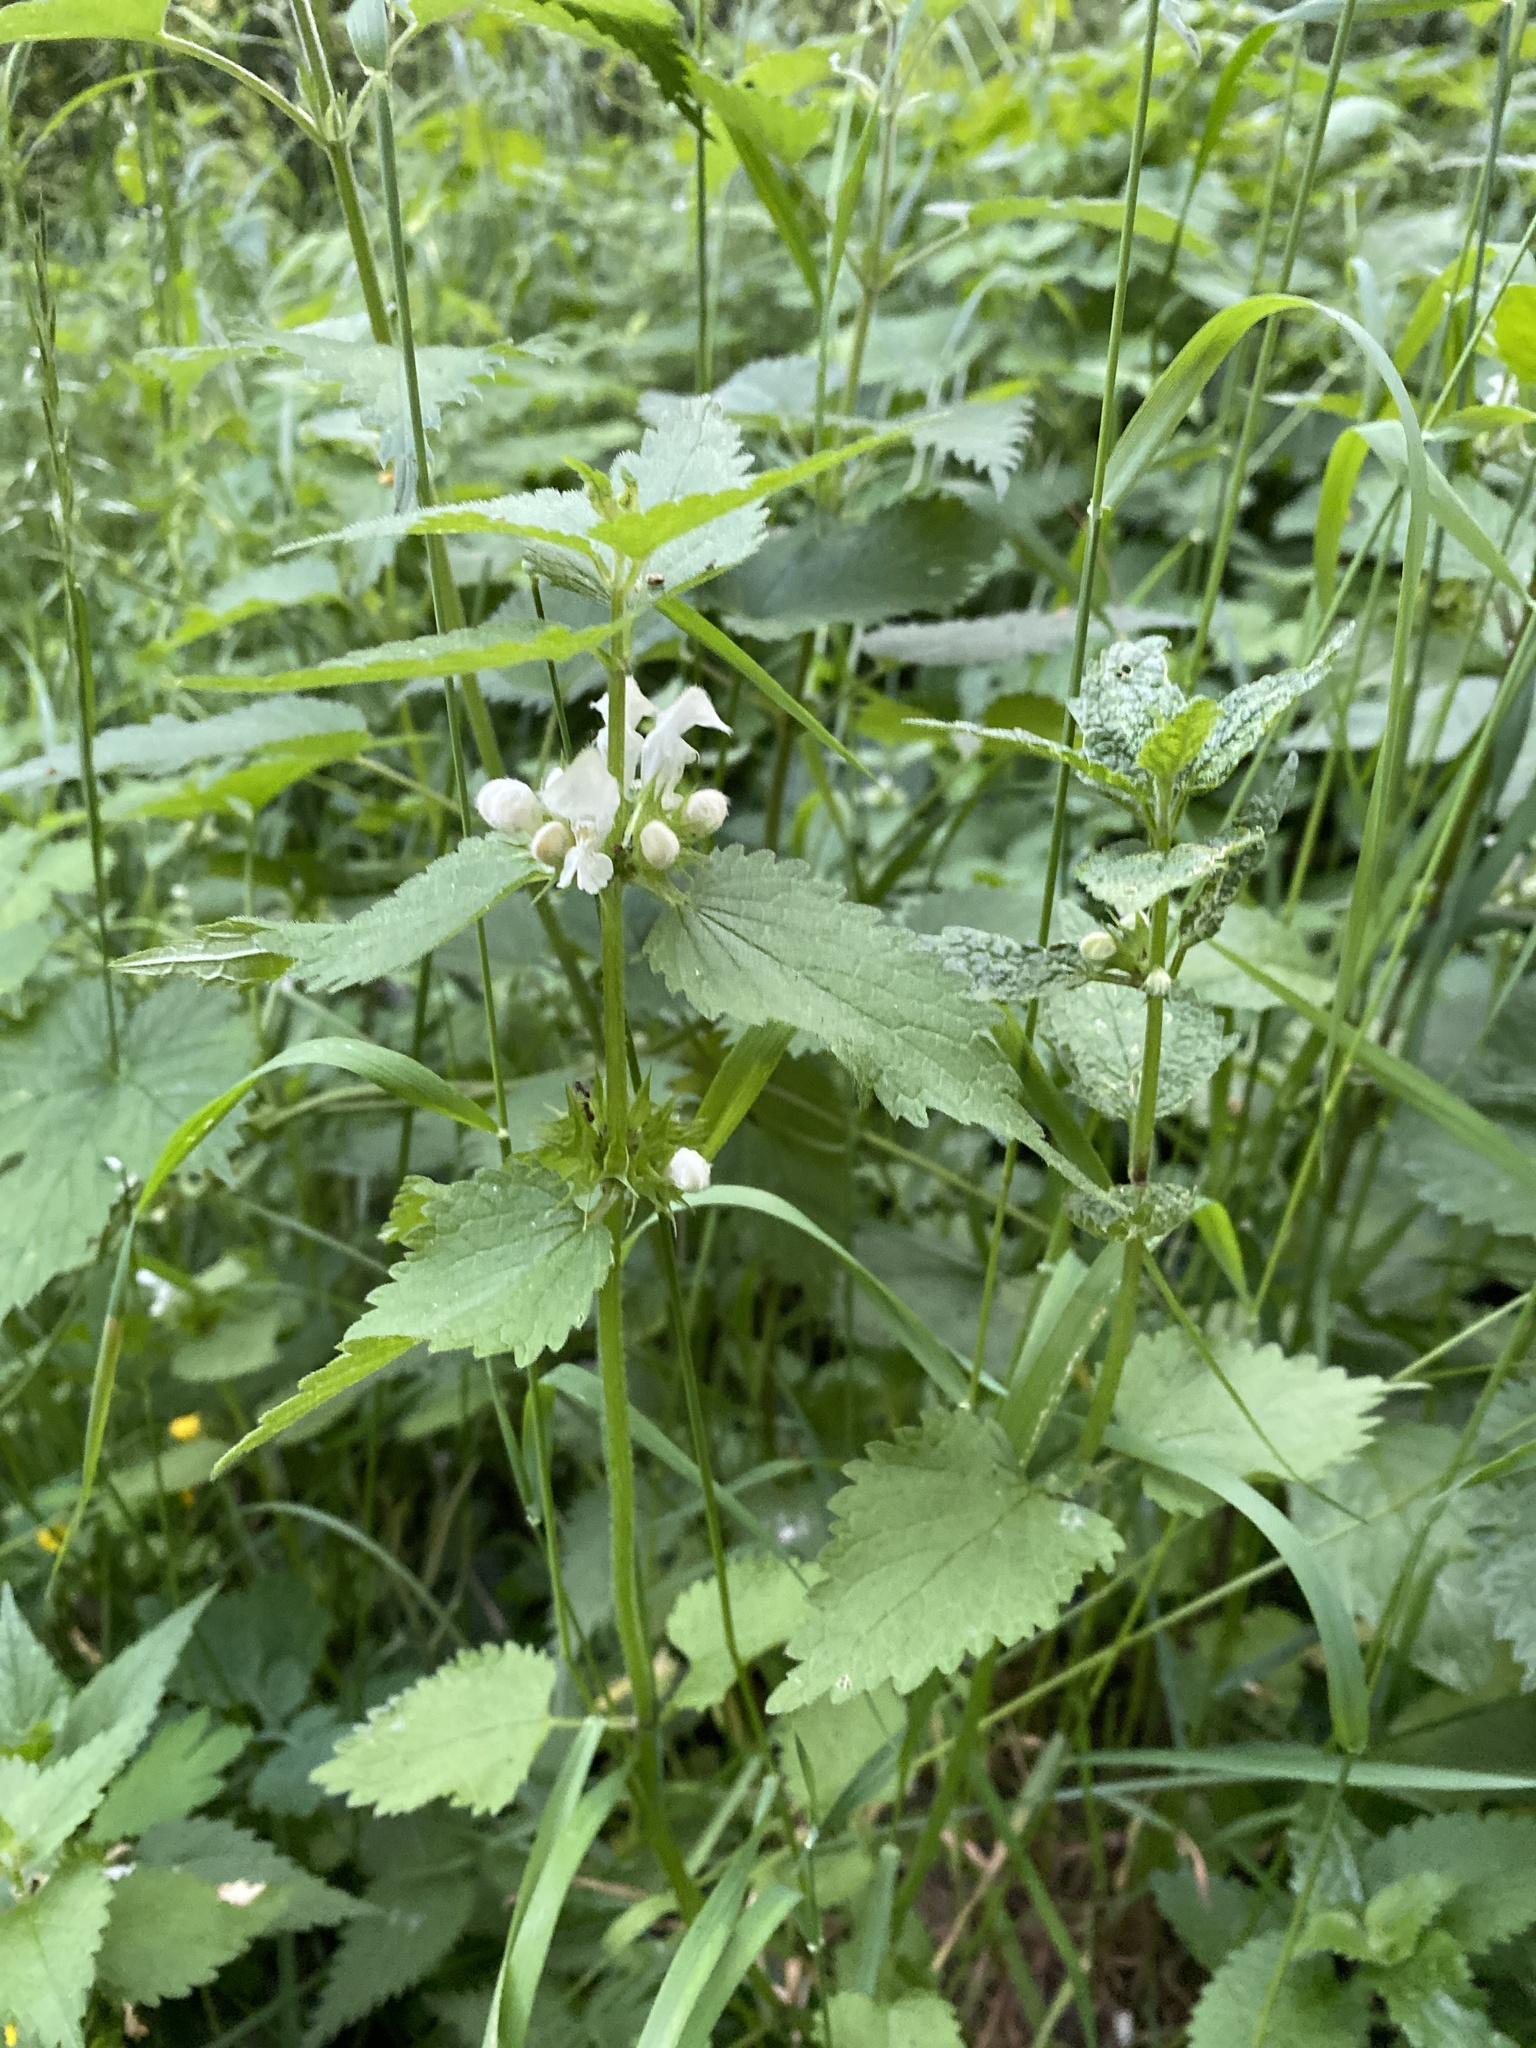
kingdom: Plantae
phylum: Tracheophyta
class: Magnoliopsida
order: Lamiales
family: Lamiaceae
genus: Lamium
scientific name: Lamium album
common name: White dead-nettle
